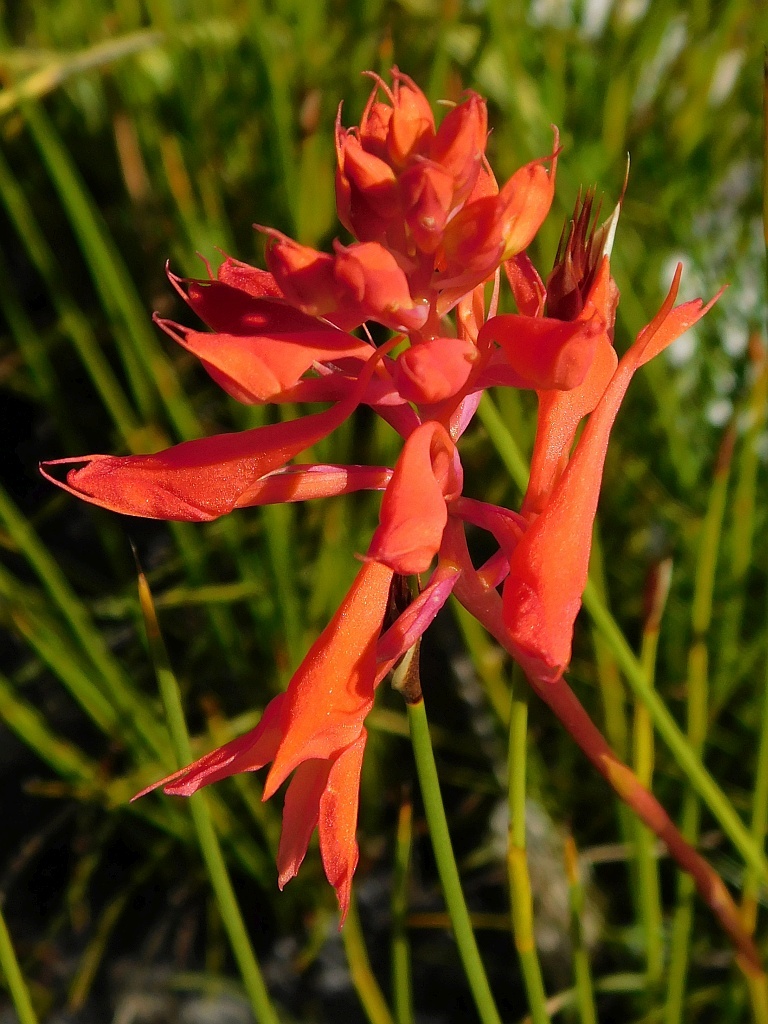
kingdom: Plantae
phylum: Tracheophyta
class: Liliopsida
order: Asparagales
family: Orchidaceae
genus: Disa
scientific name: Disa ferruginea
